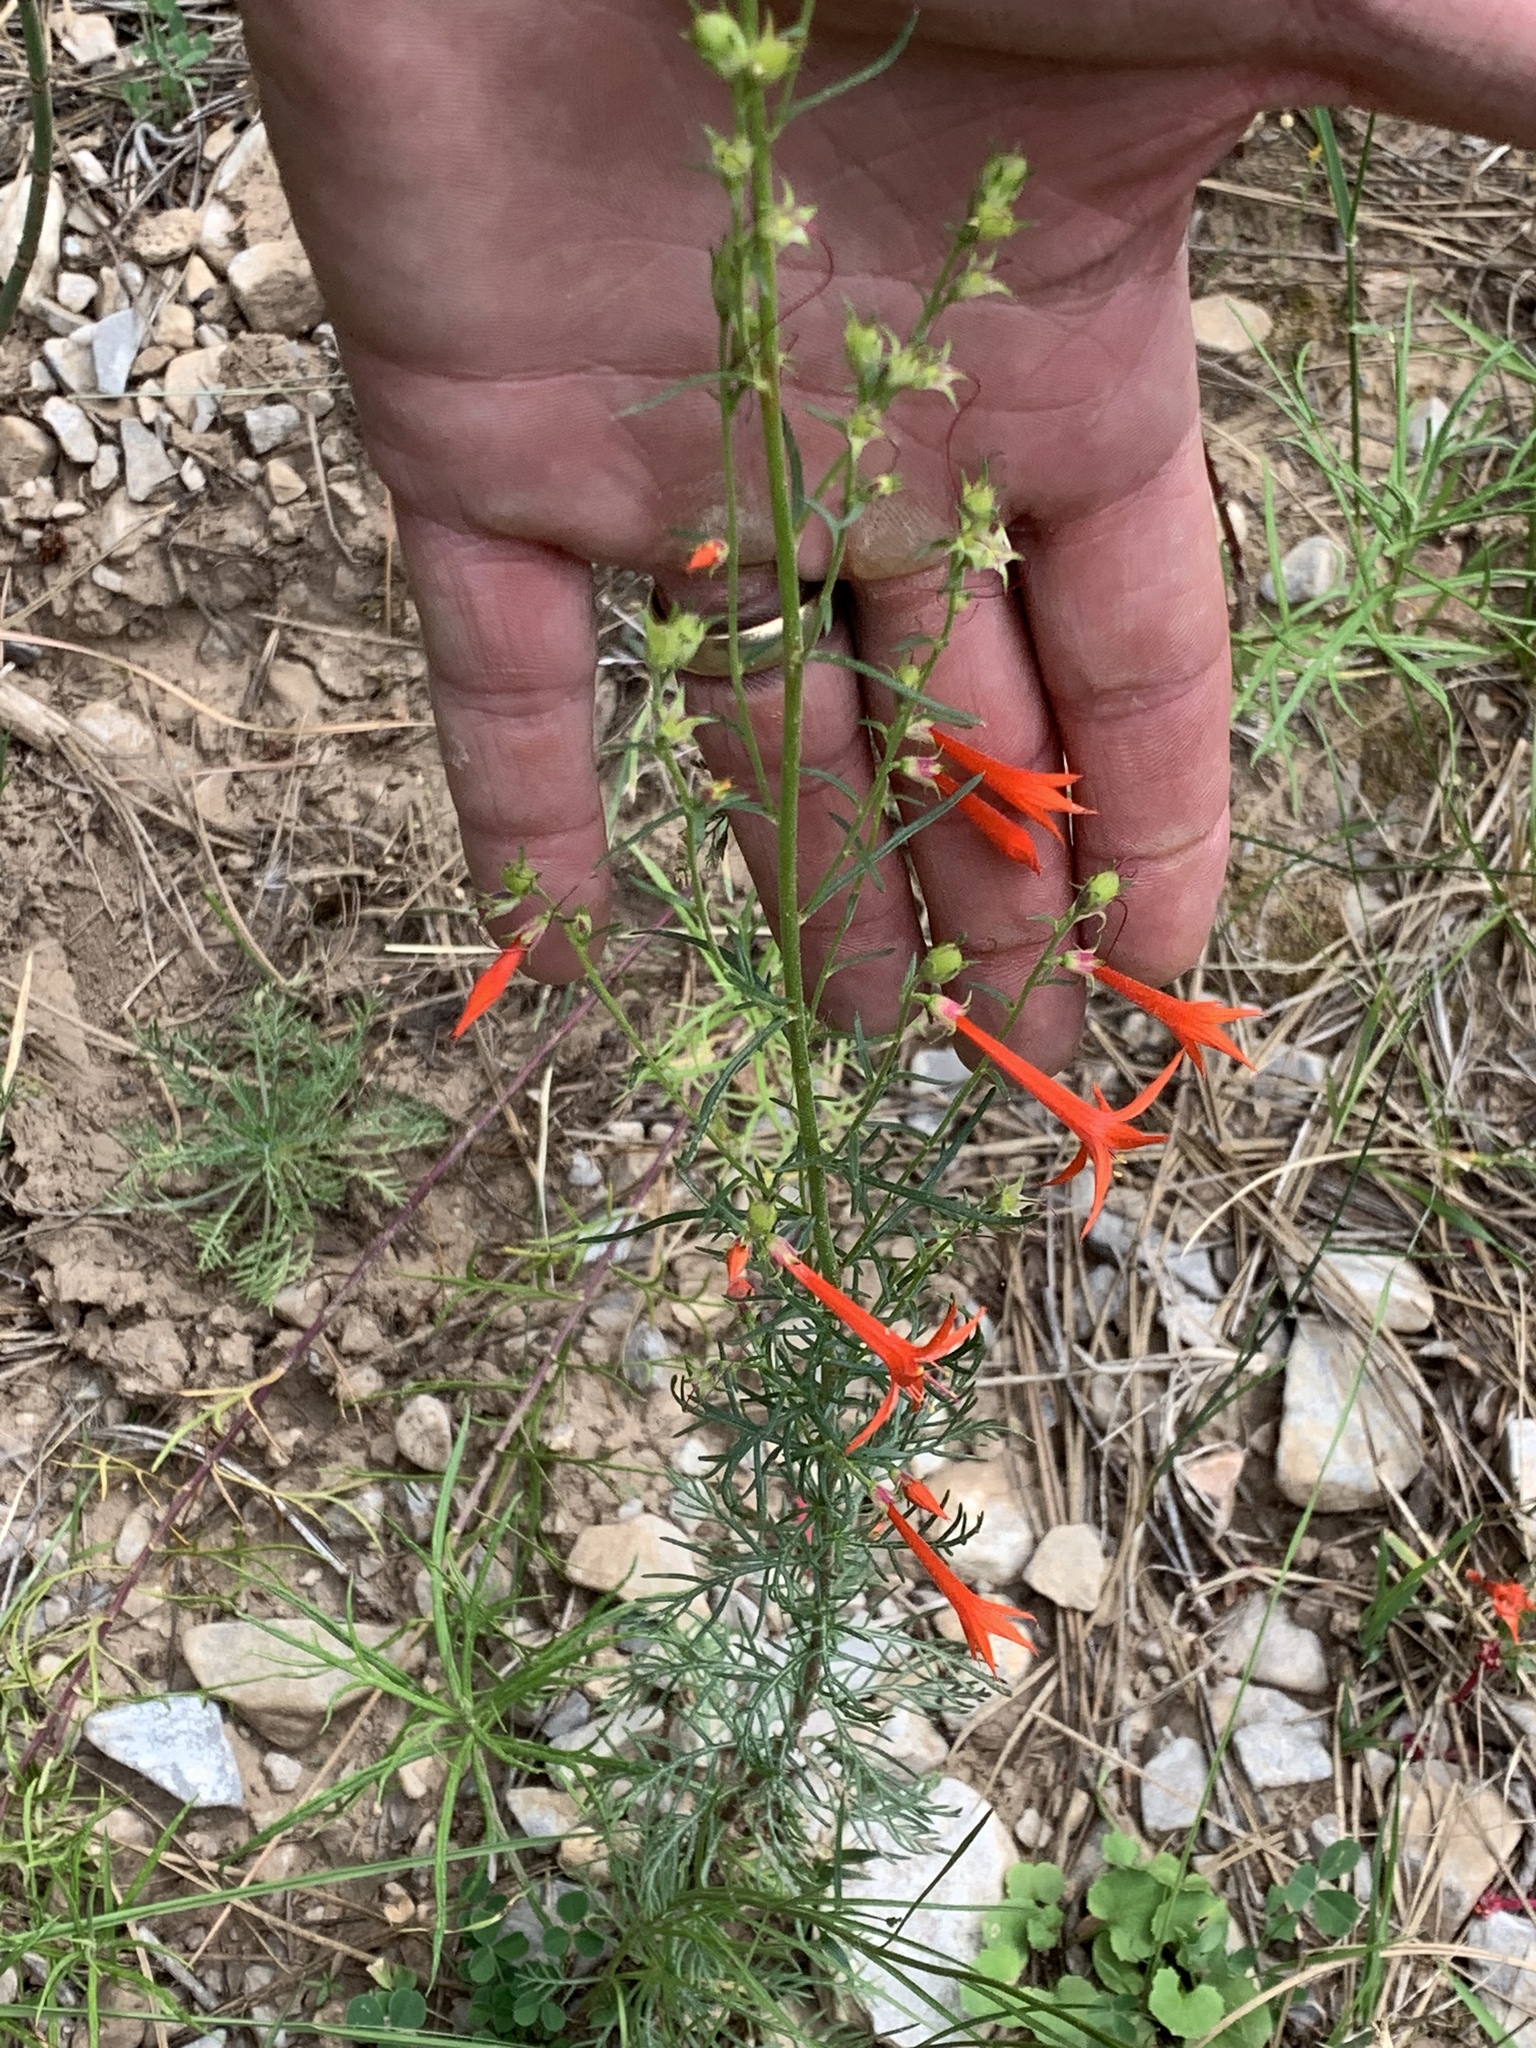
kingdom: Plantae
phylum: Tracheophyta
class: Magnoliopsida
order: Ericales
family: Polemoniaceae
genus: Ipomopsis
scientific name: Ipomopsis aggregata
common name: Scarlet gilia
